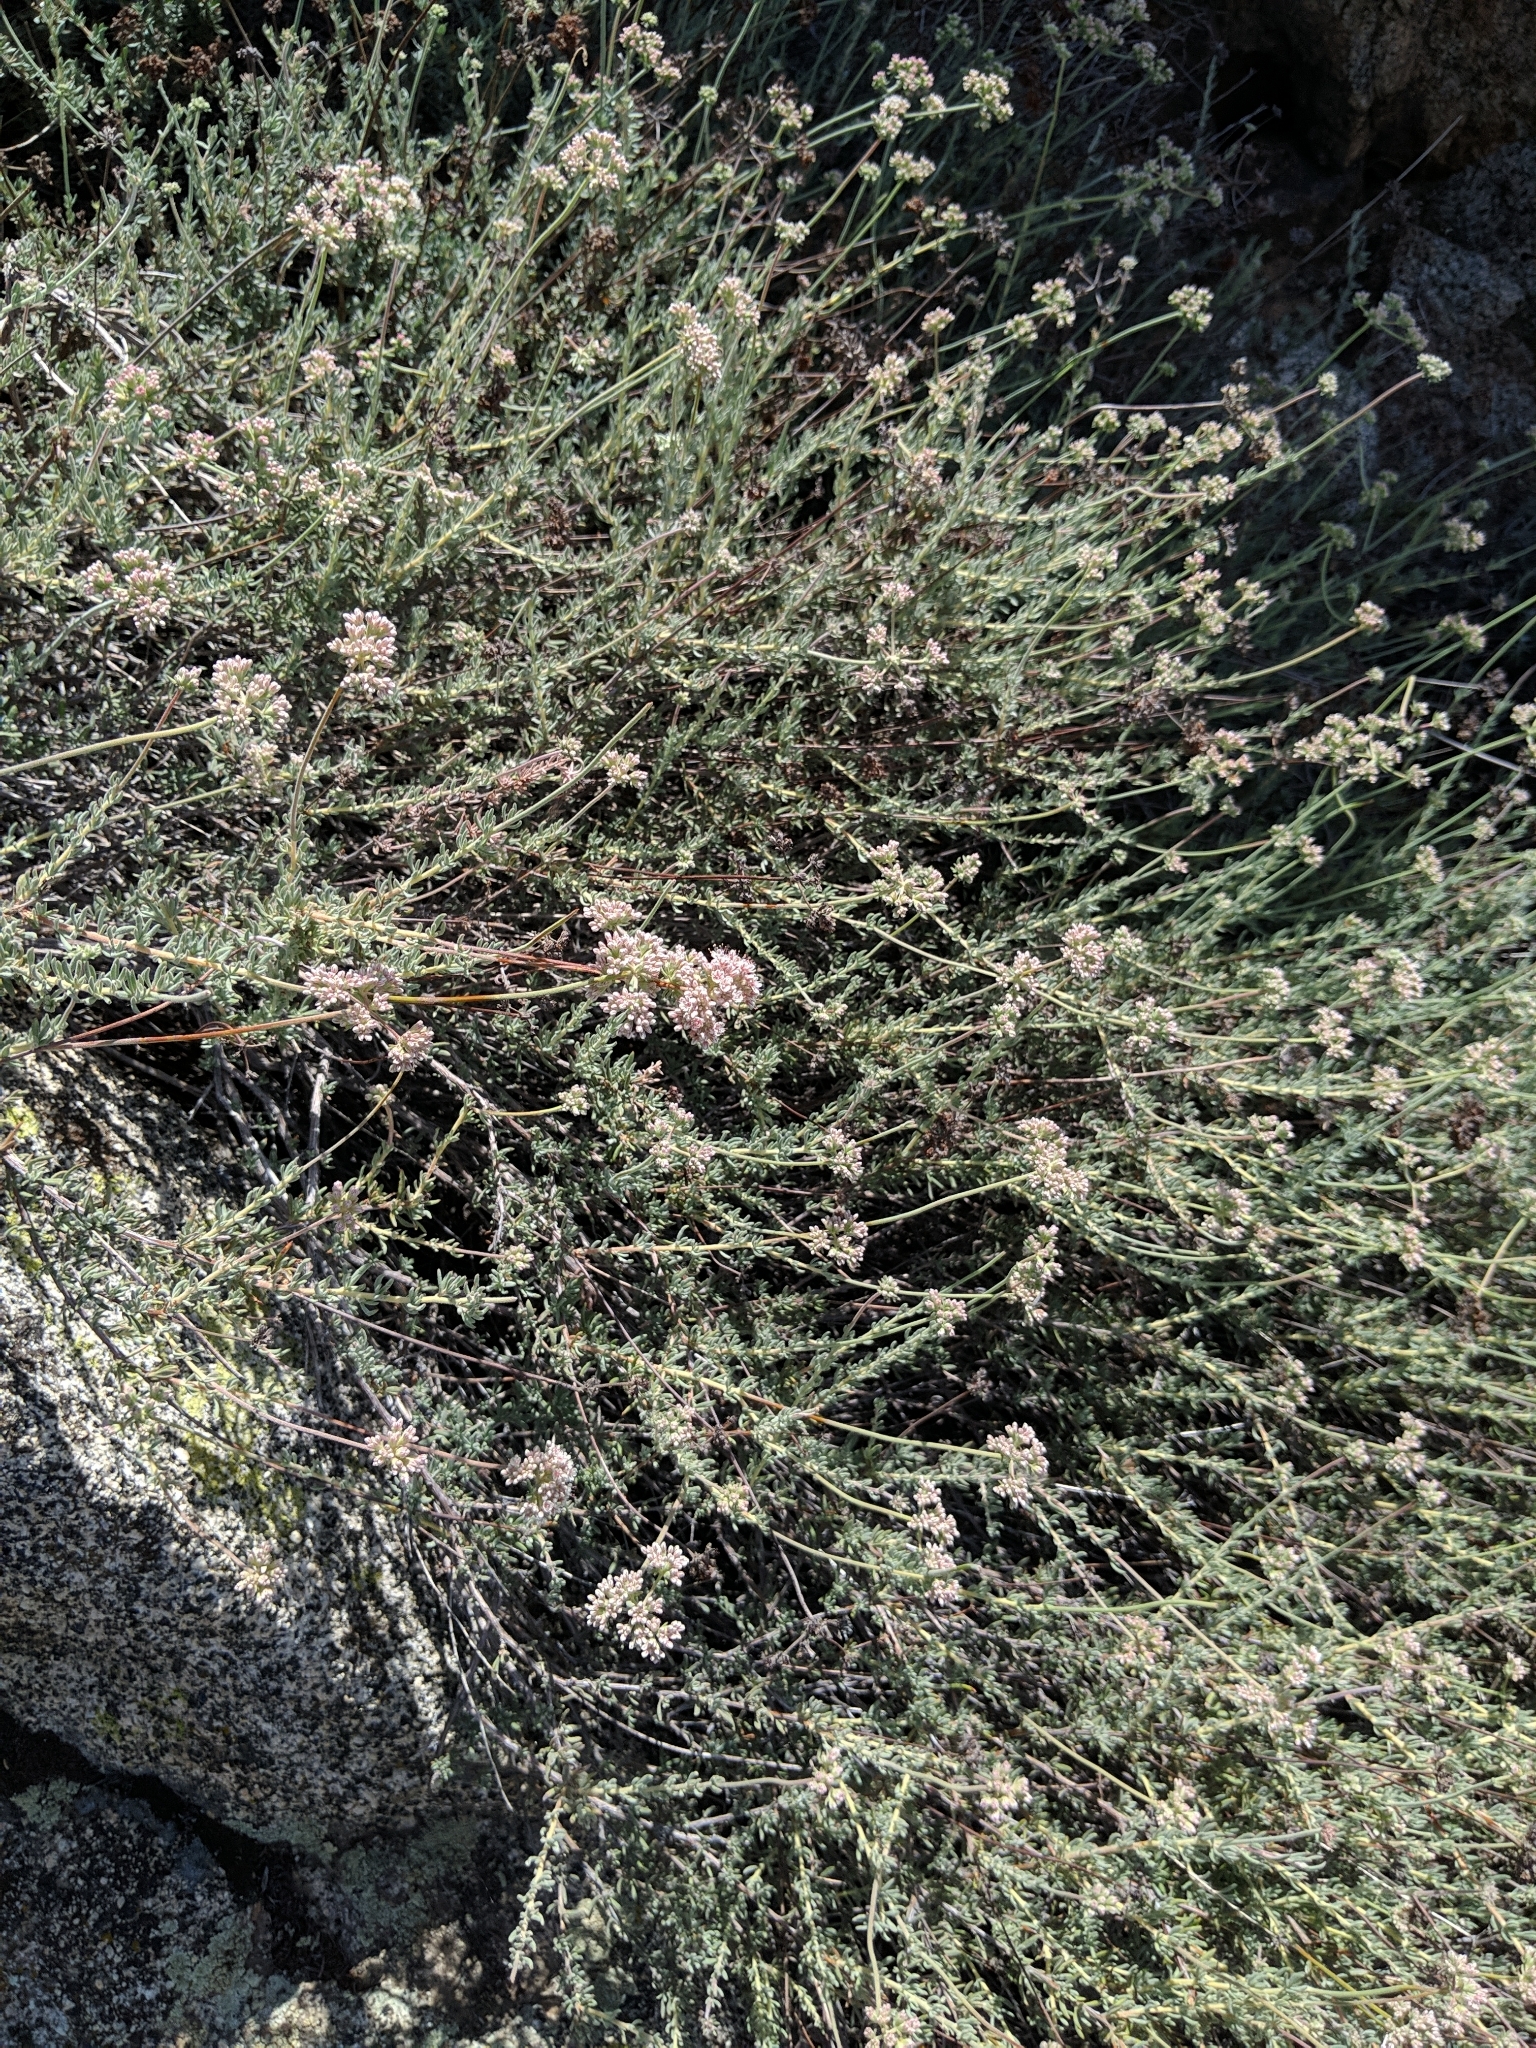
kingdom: Plantae
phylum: Tracheophyta
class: Magnoliopsida
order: Caryophyllales
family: Polygonaceae
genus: Eriogonum
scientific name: Eriogonum fasciculatum
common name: California wild buckwheat
